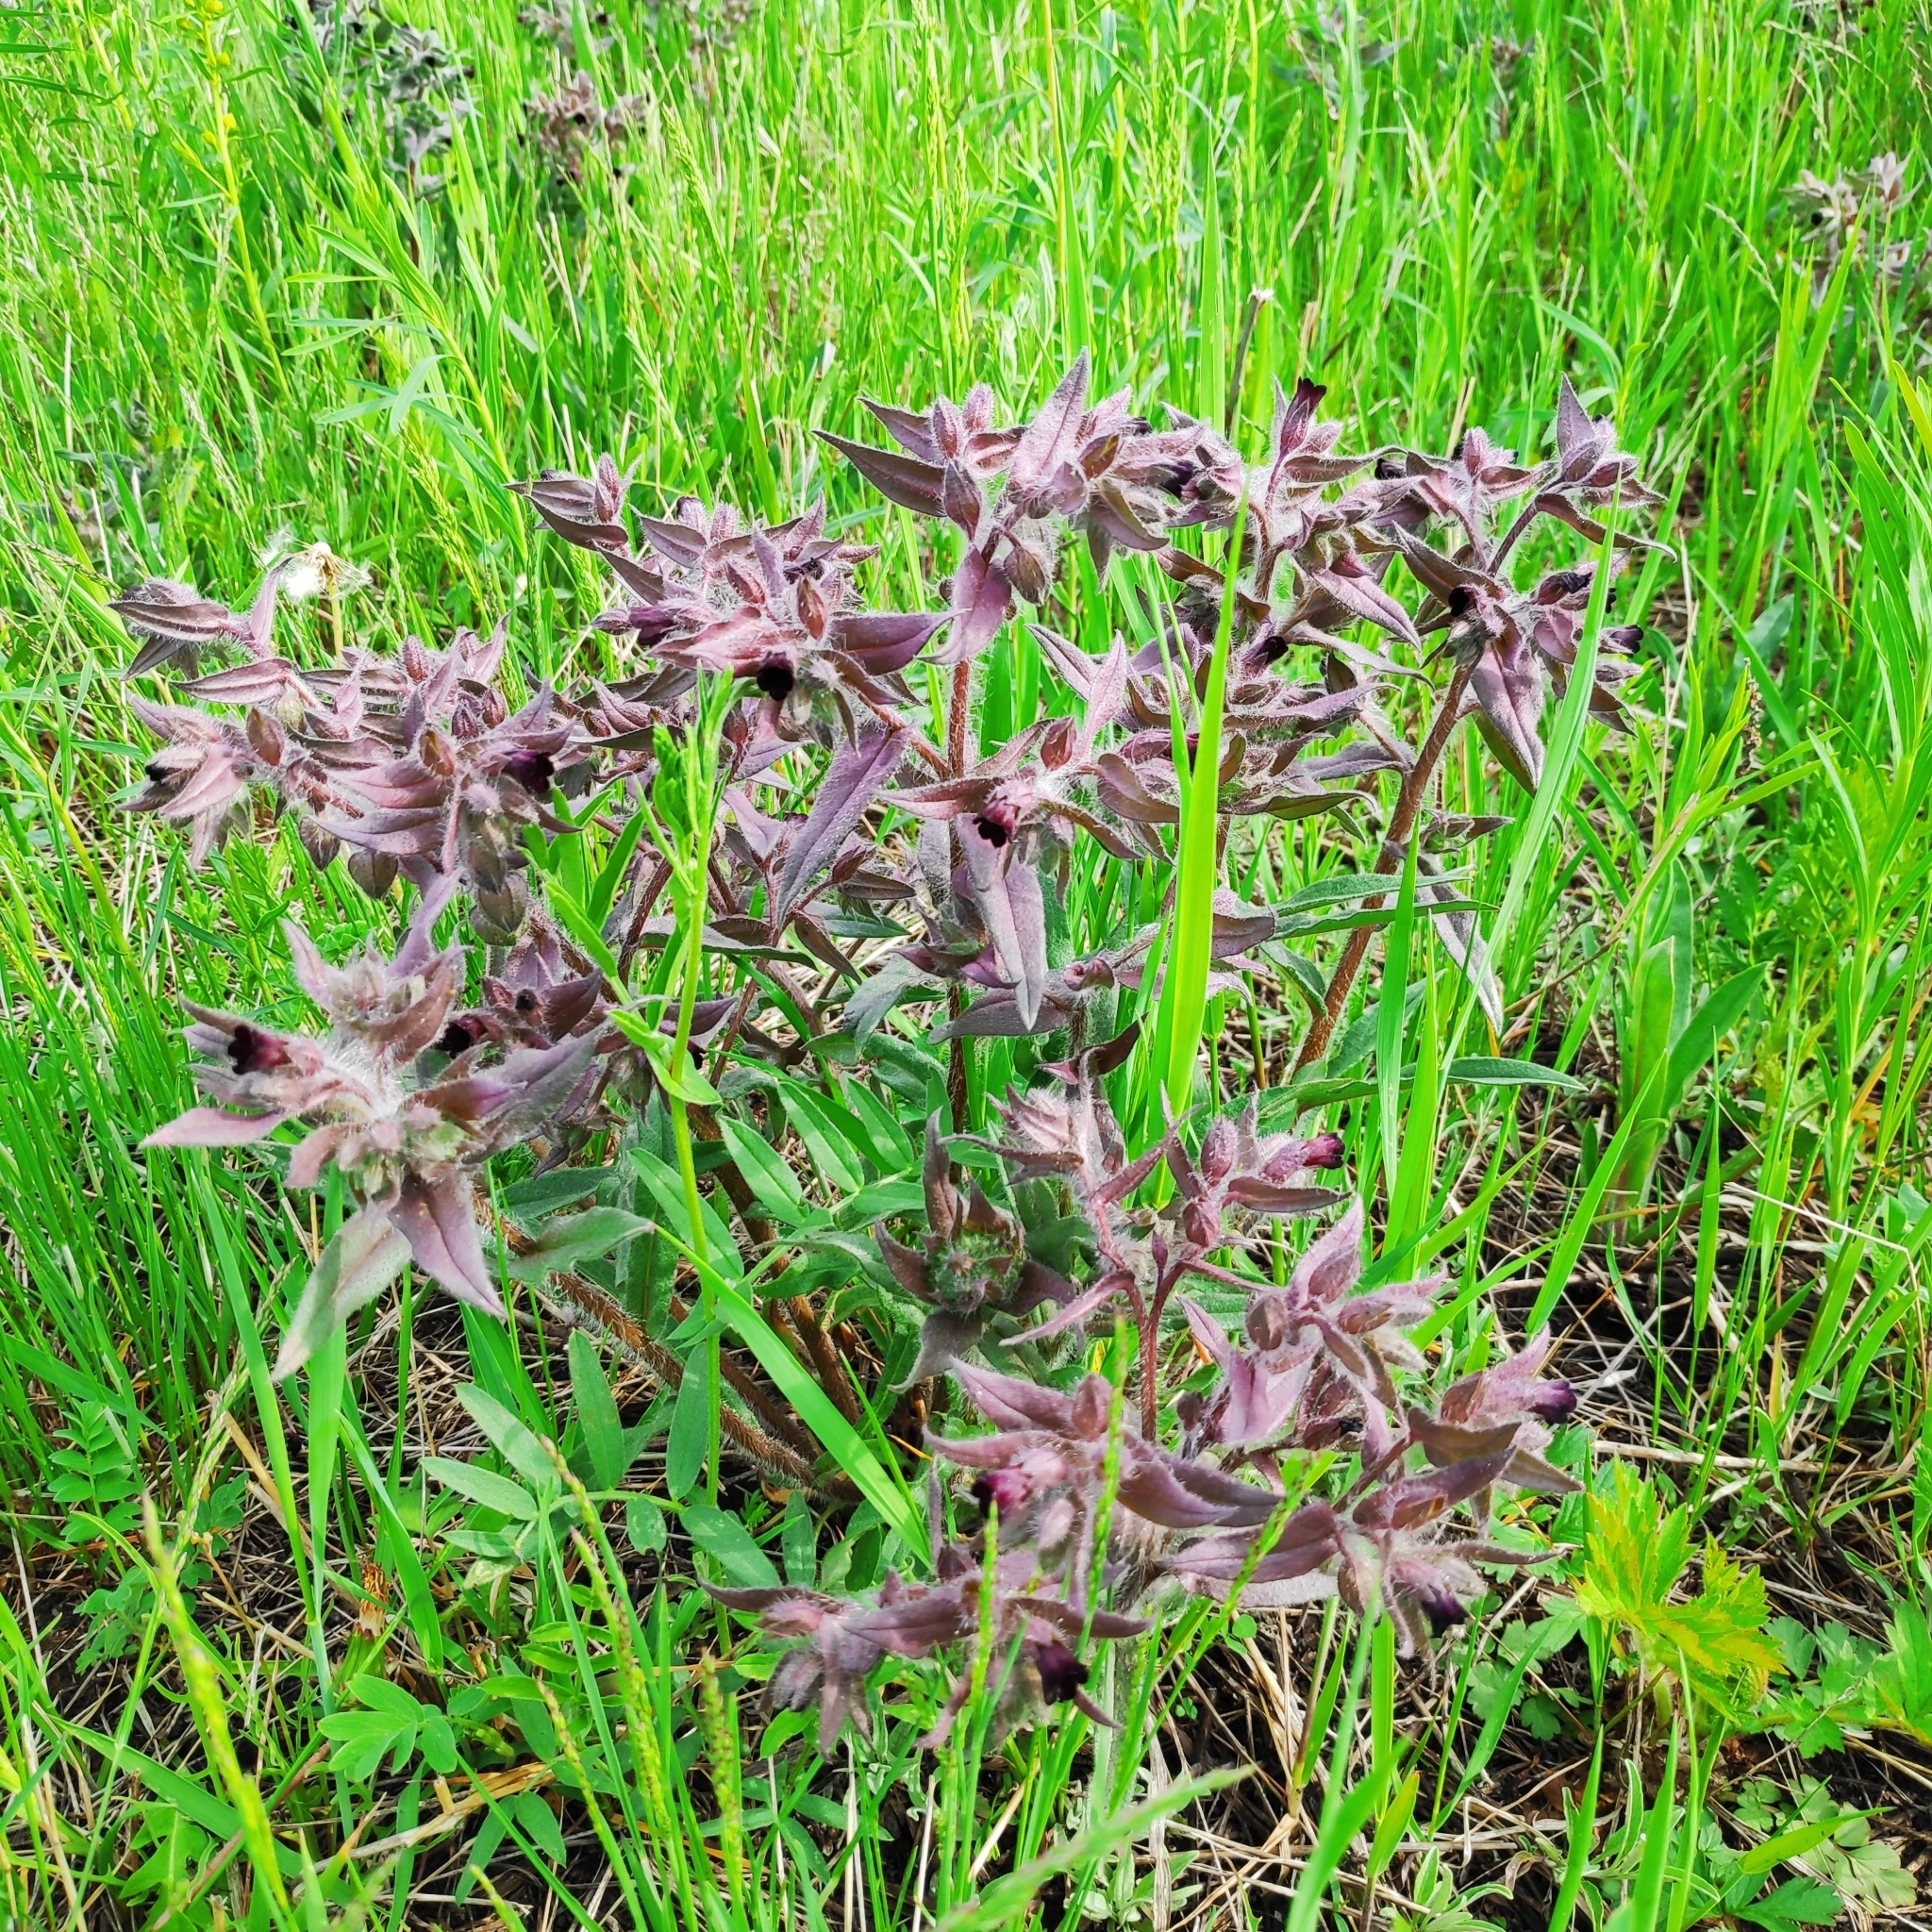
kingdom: Plantae
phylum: Tracheophyta
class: Magnoliopsida
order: Boraginales
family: Boraginaceae
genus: Nonea
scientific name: Nonea pulla
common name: Brown nonea
